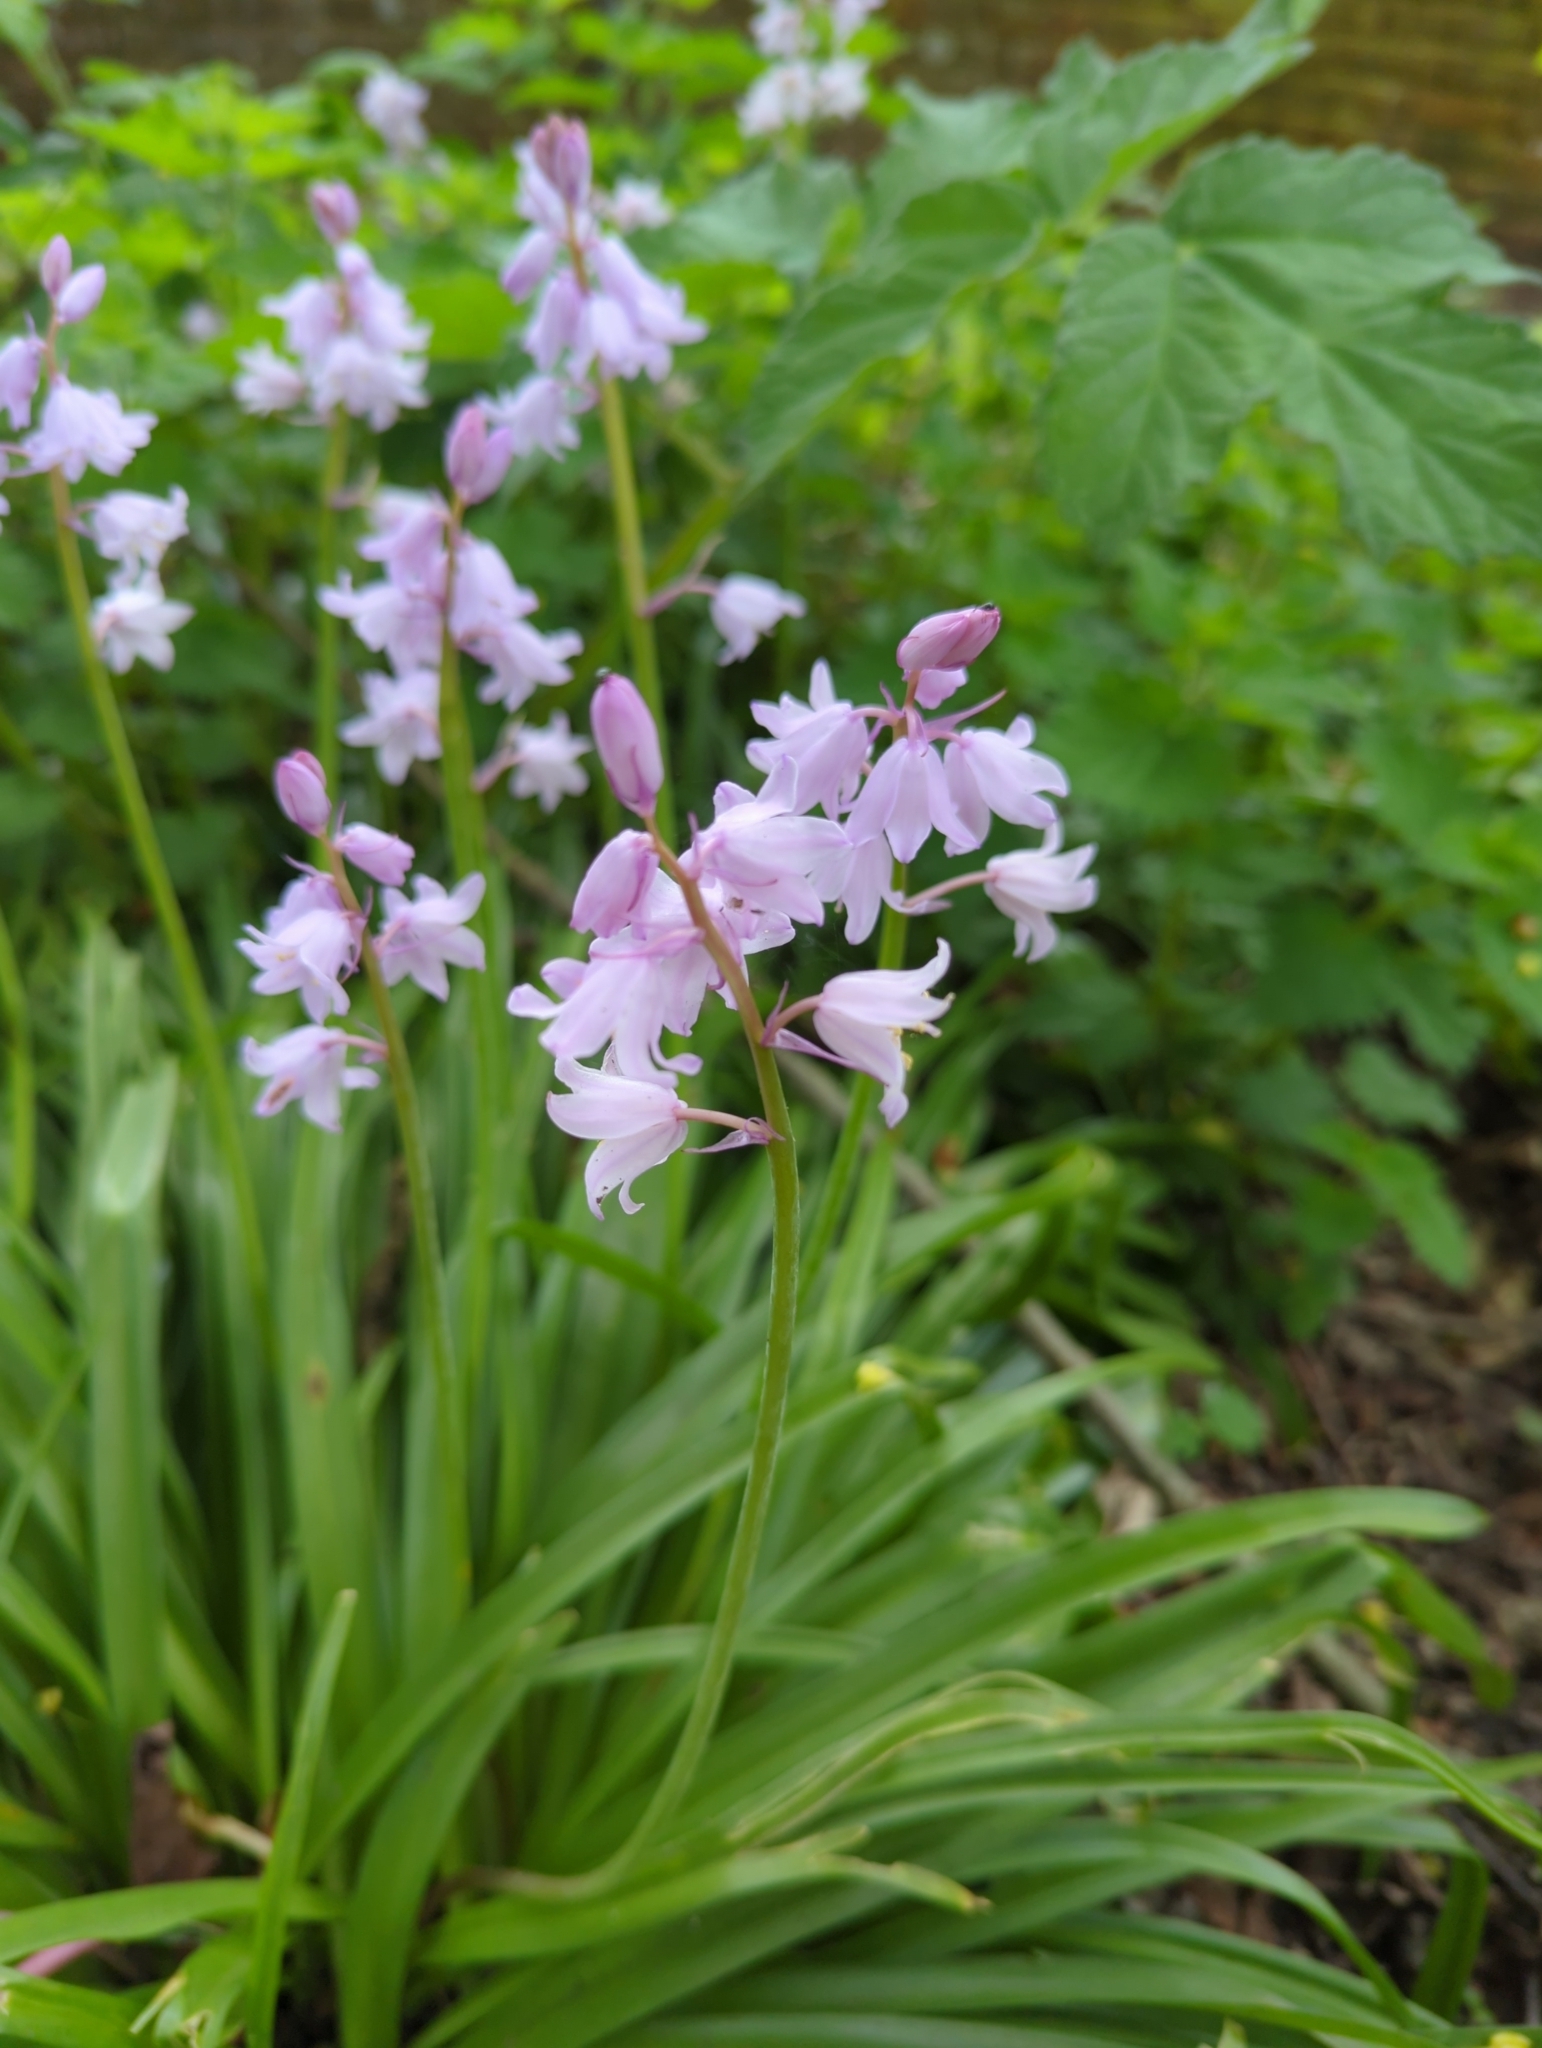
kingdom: Plantae
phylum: Tracheophyta
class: Liliopsida
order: Asparagales
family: Asparagaceae
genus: Hyacinthoides
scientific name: Hyacinthoides hispanica
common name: Spanish bluebell
